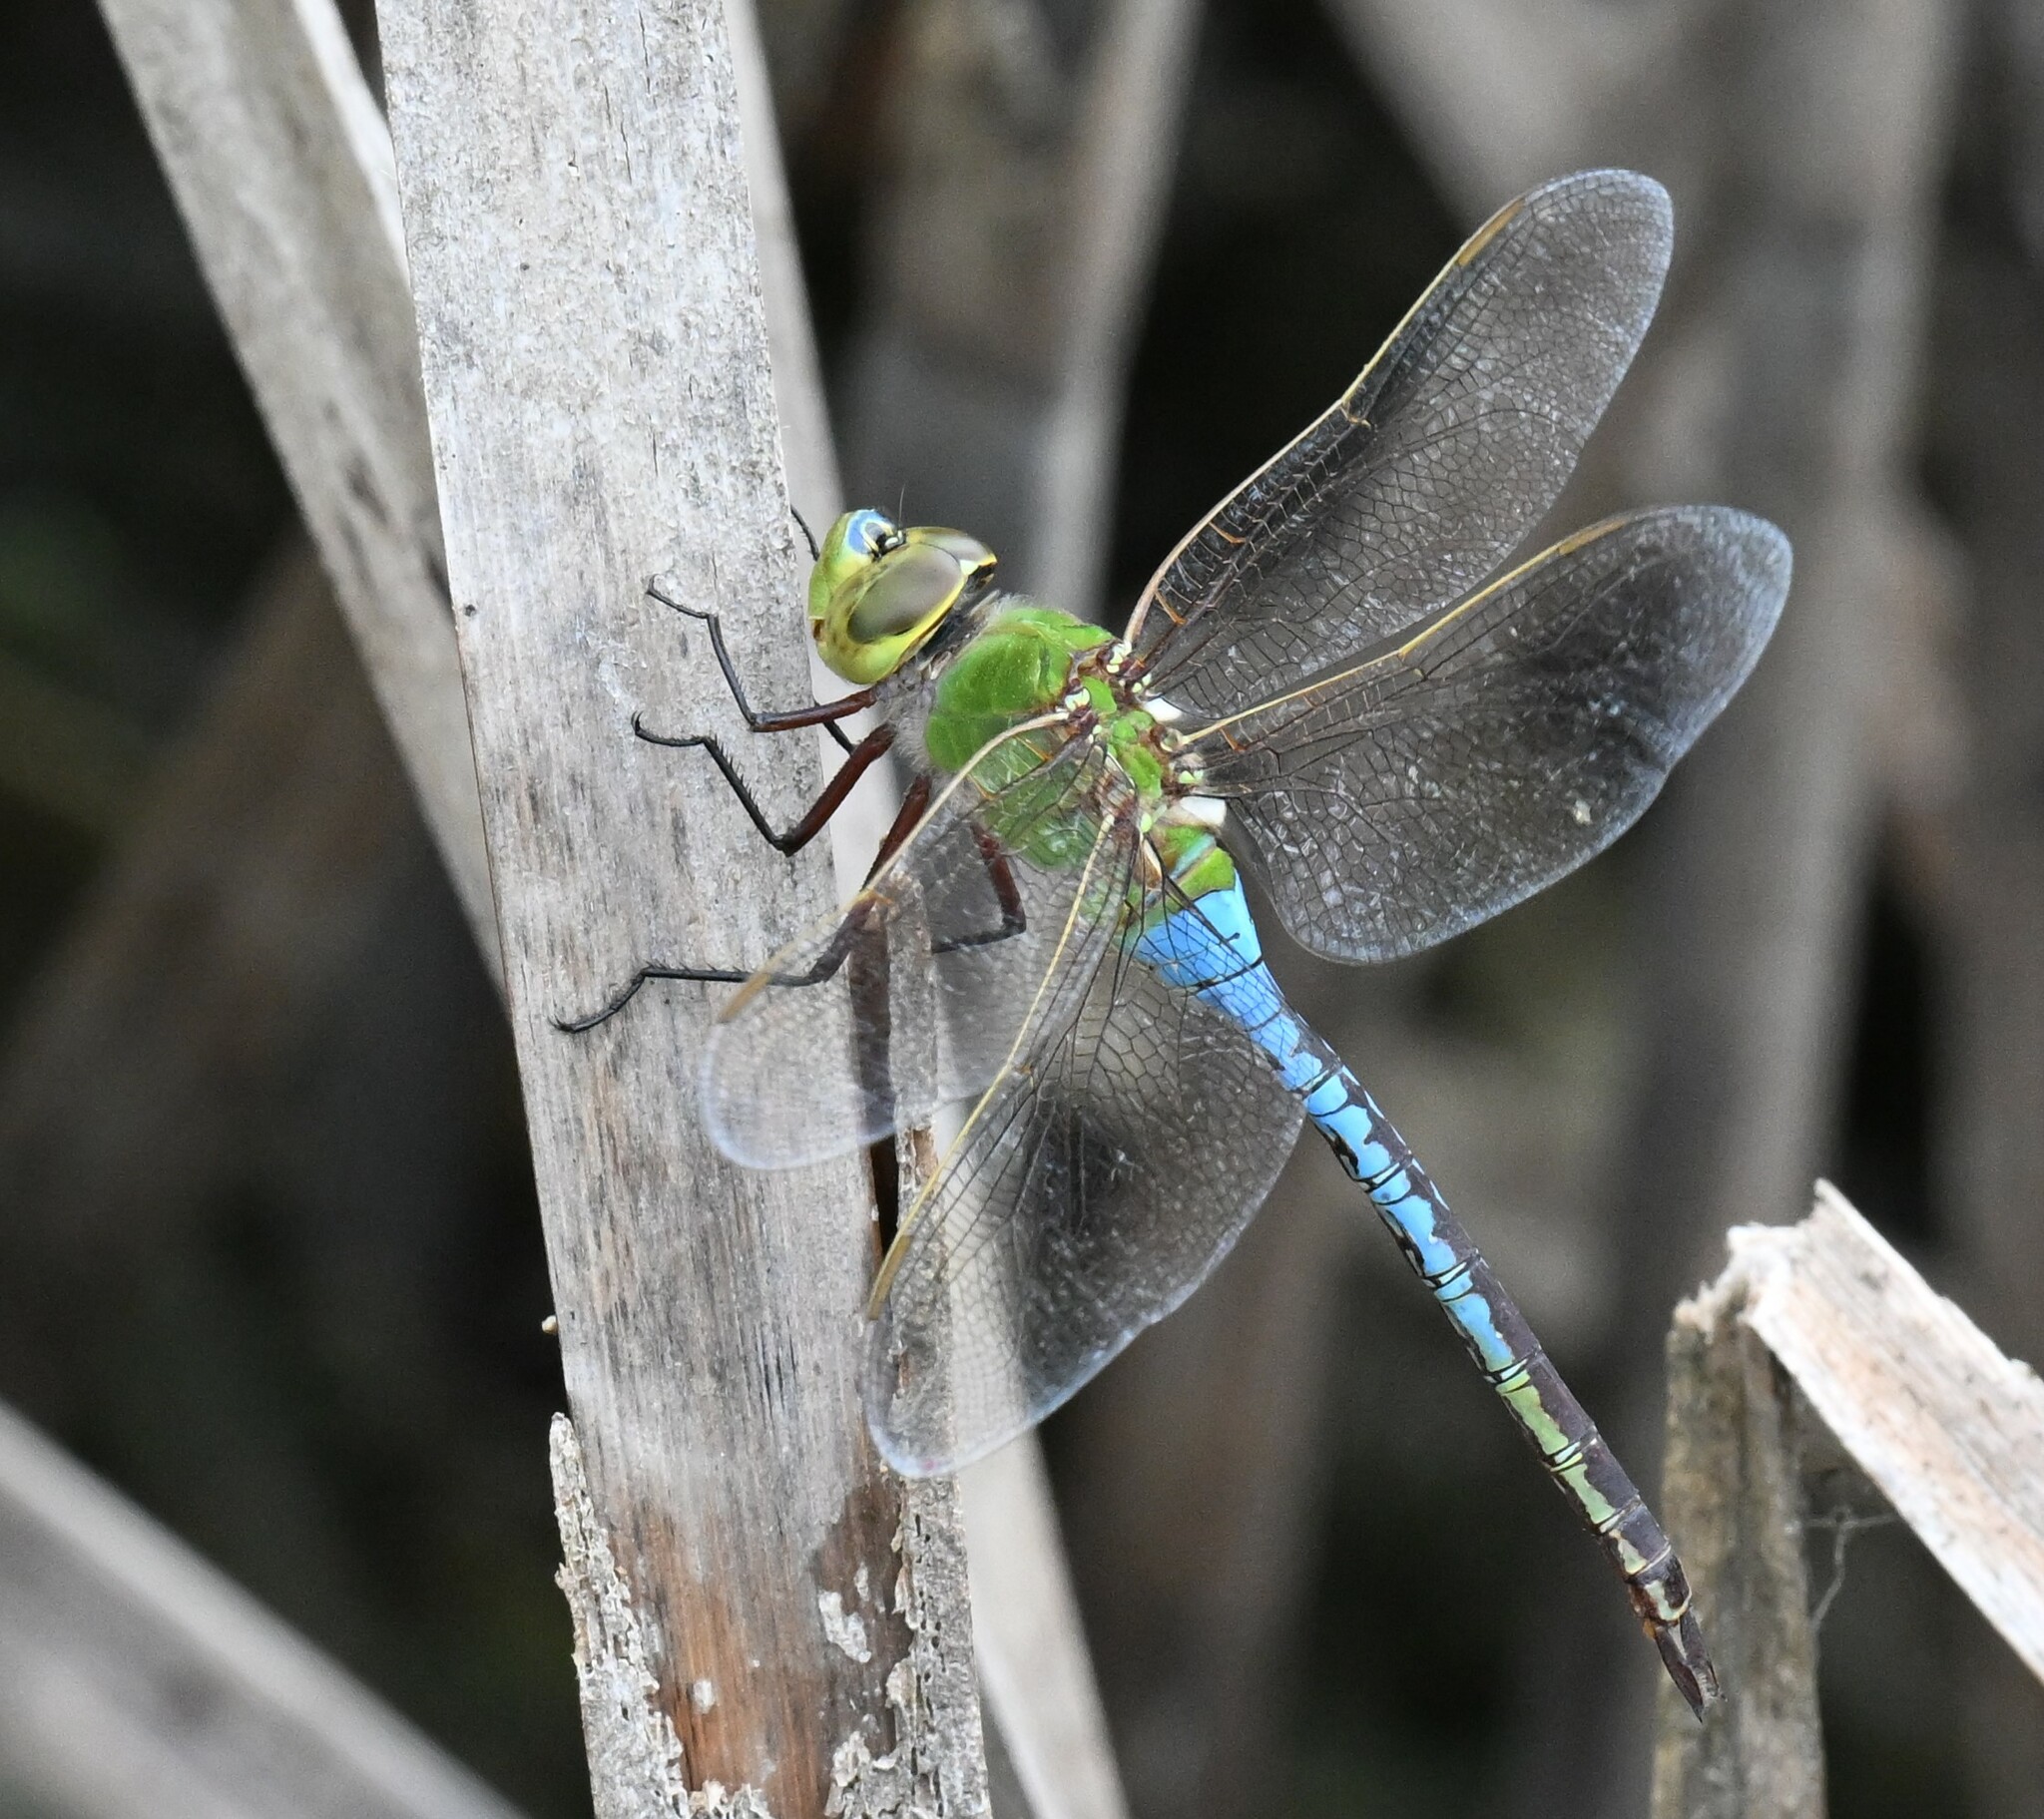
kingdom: Animalia
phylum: Arthropoda
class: Insecta
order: Odonata
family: Aeshnidae
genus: Anax
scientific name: Anax junius
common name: Common green darner
